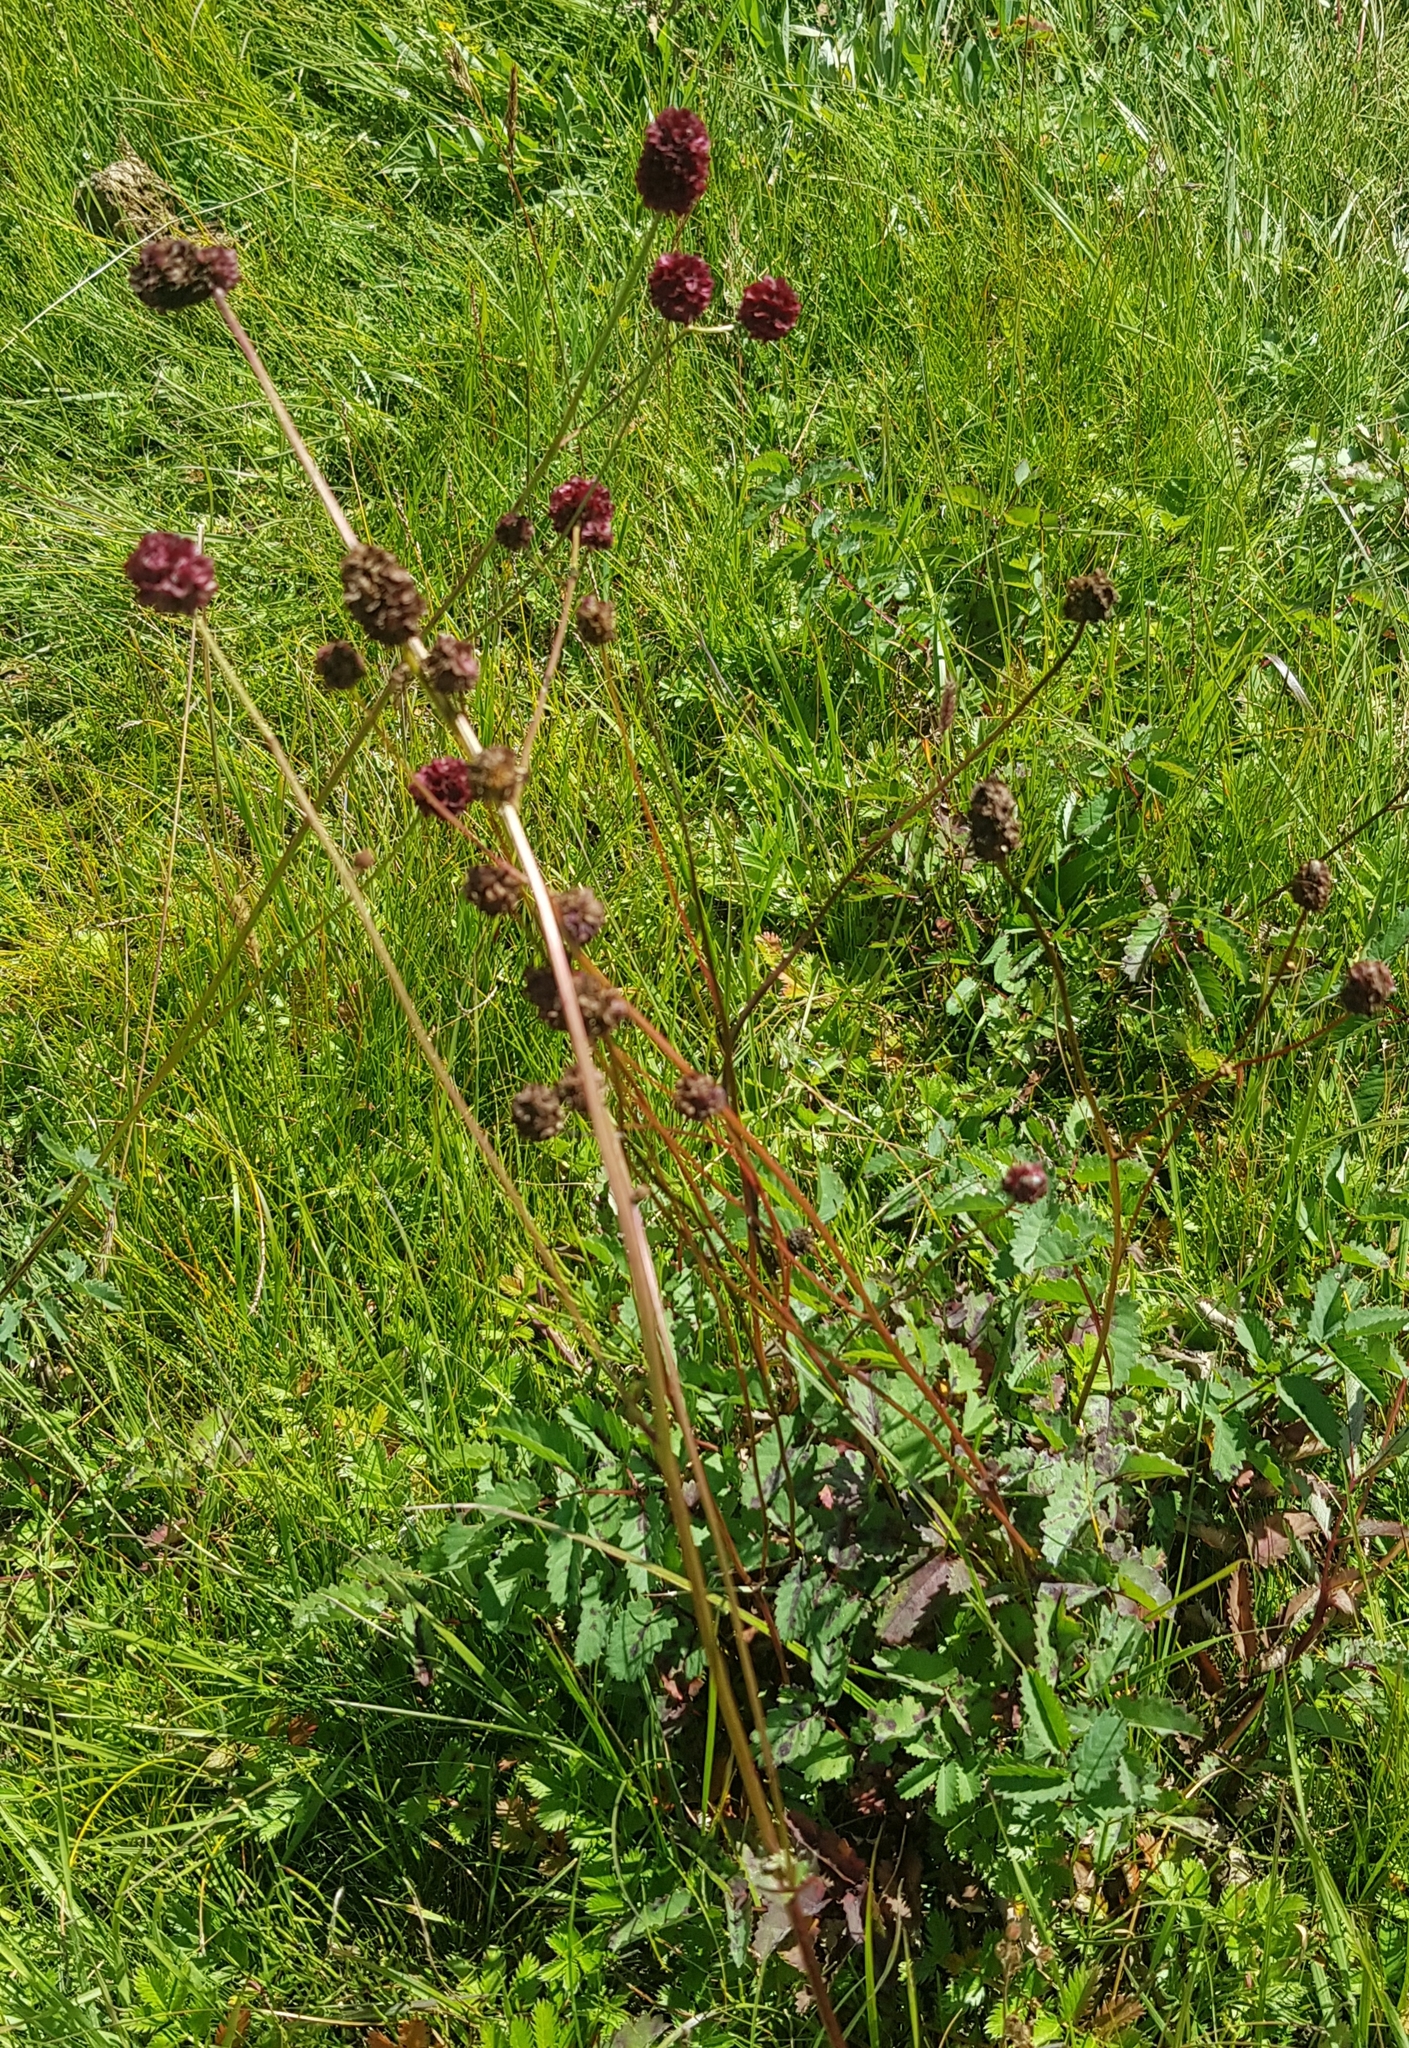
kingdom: Plantae
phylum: Tracheophyta
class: Magnoliopsida
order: Rosales
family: Rosaceae
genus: Sanguisorba
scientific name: Sanguisorba officinalis
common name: Great burnet
